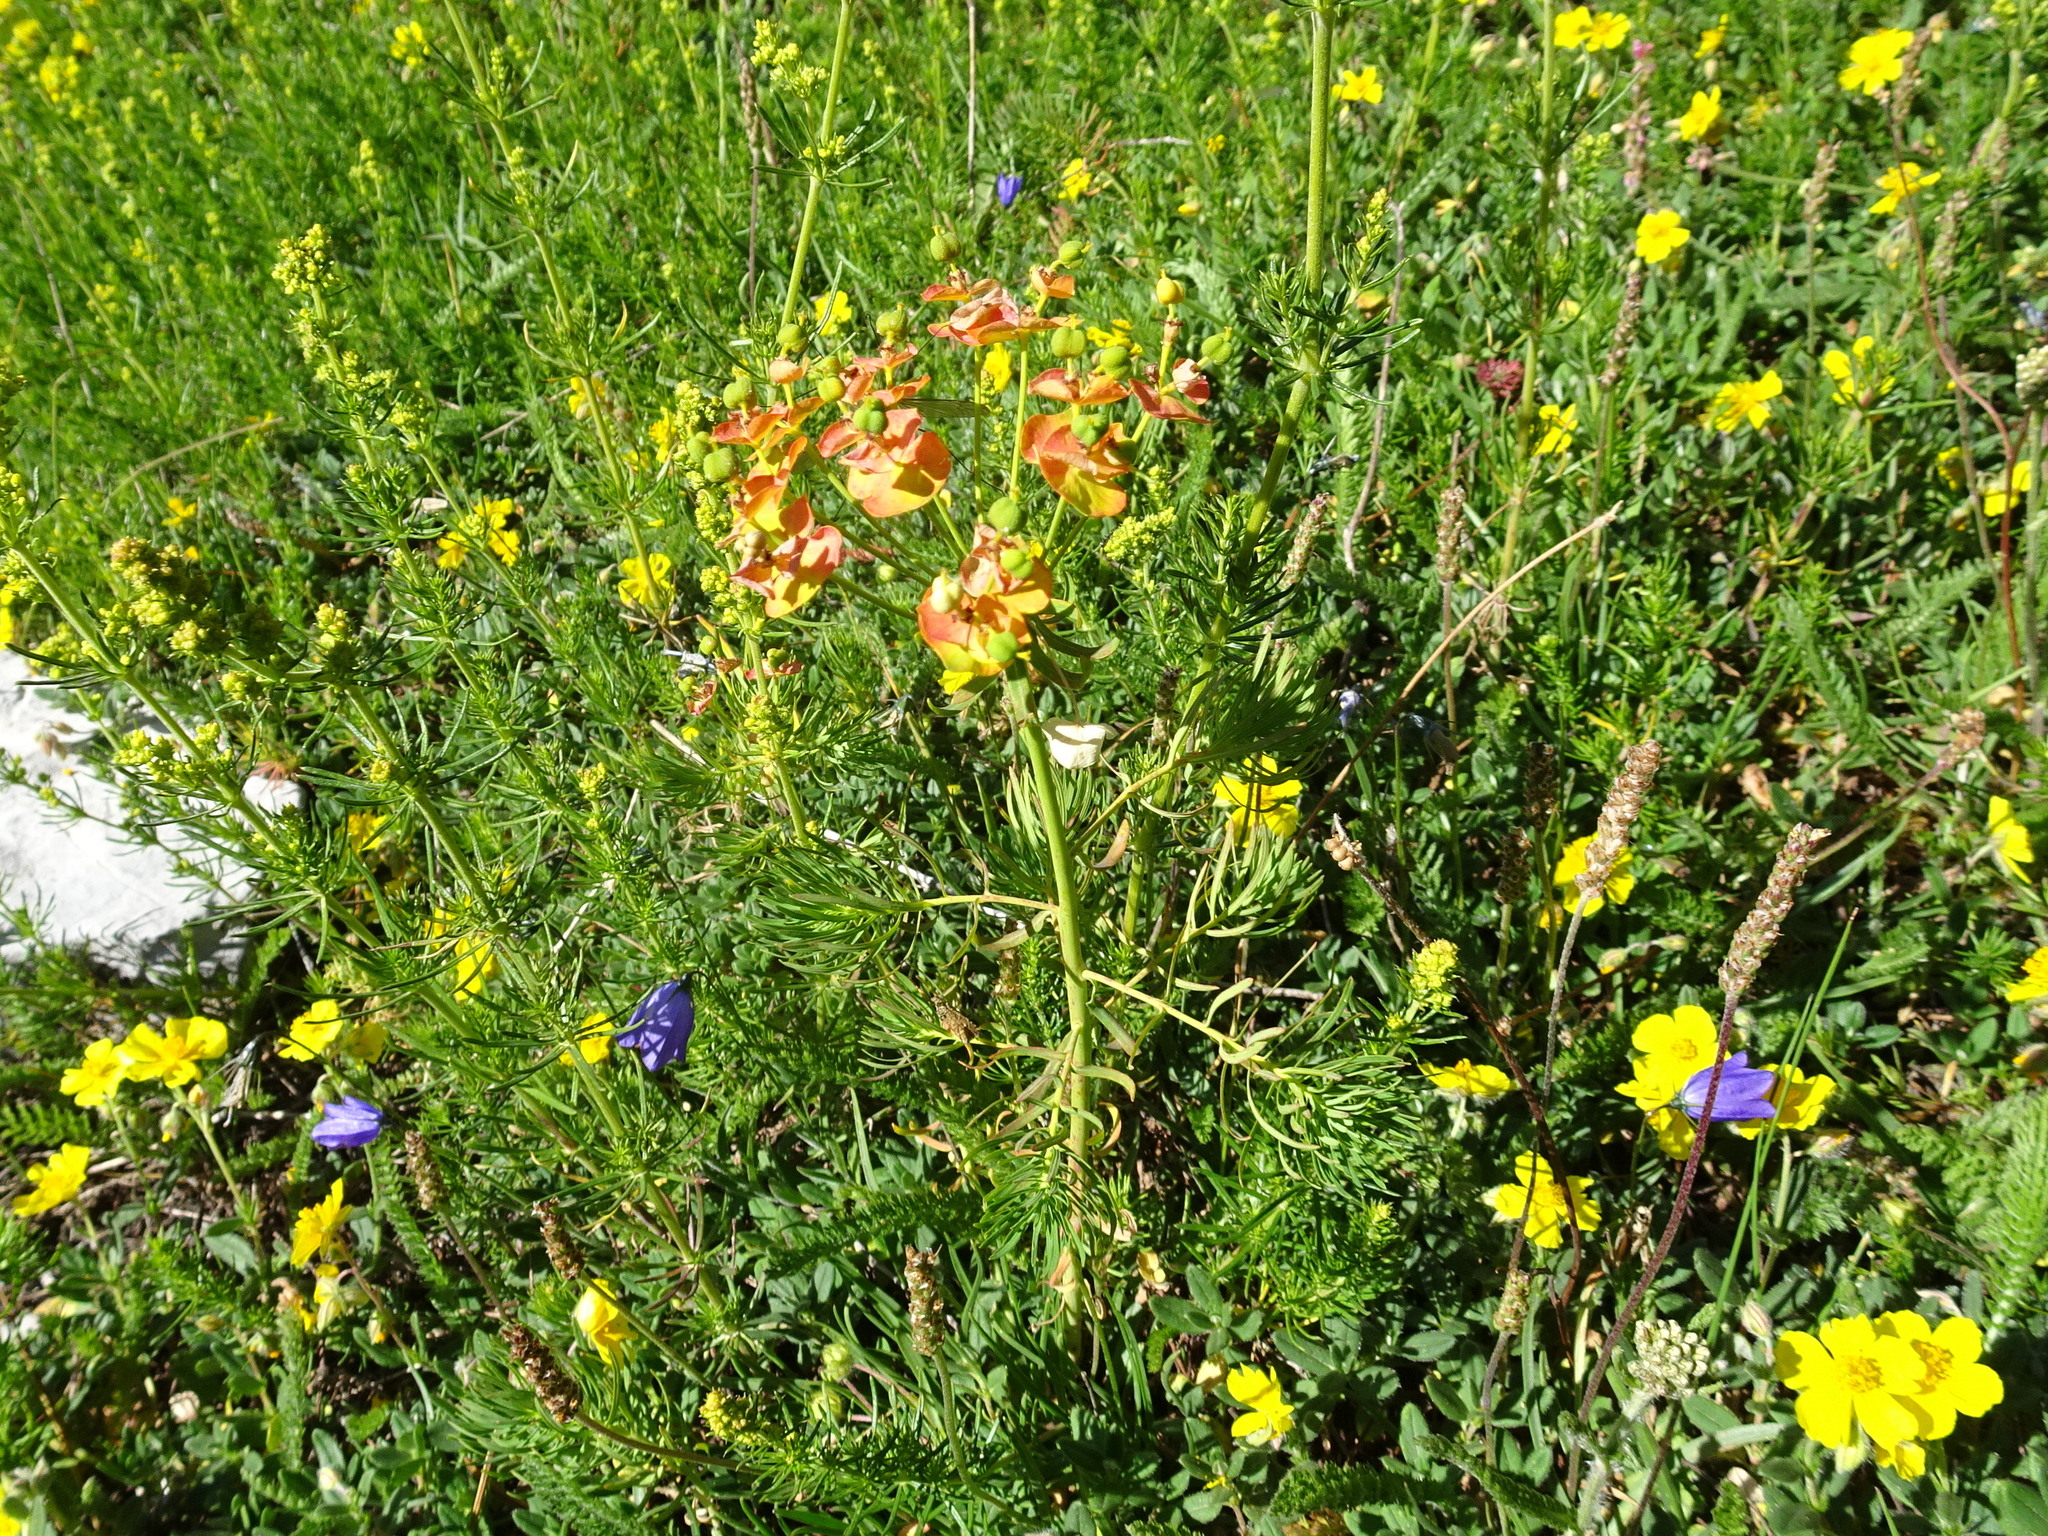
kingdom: Plantae
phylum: Tracheophyta
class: Magnoliopsida
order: Malpighiales
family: Euphorbiaceae
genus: Euphorbia
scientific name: Euphorbia cyparissias
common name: Cypress spurge
